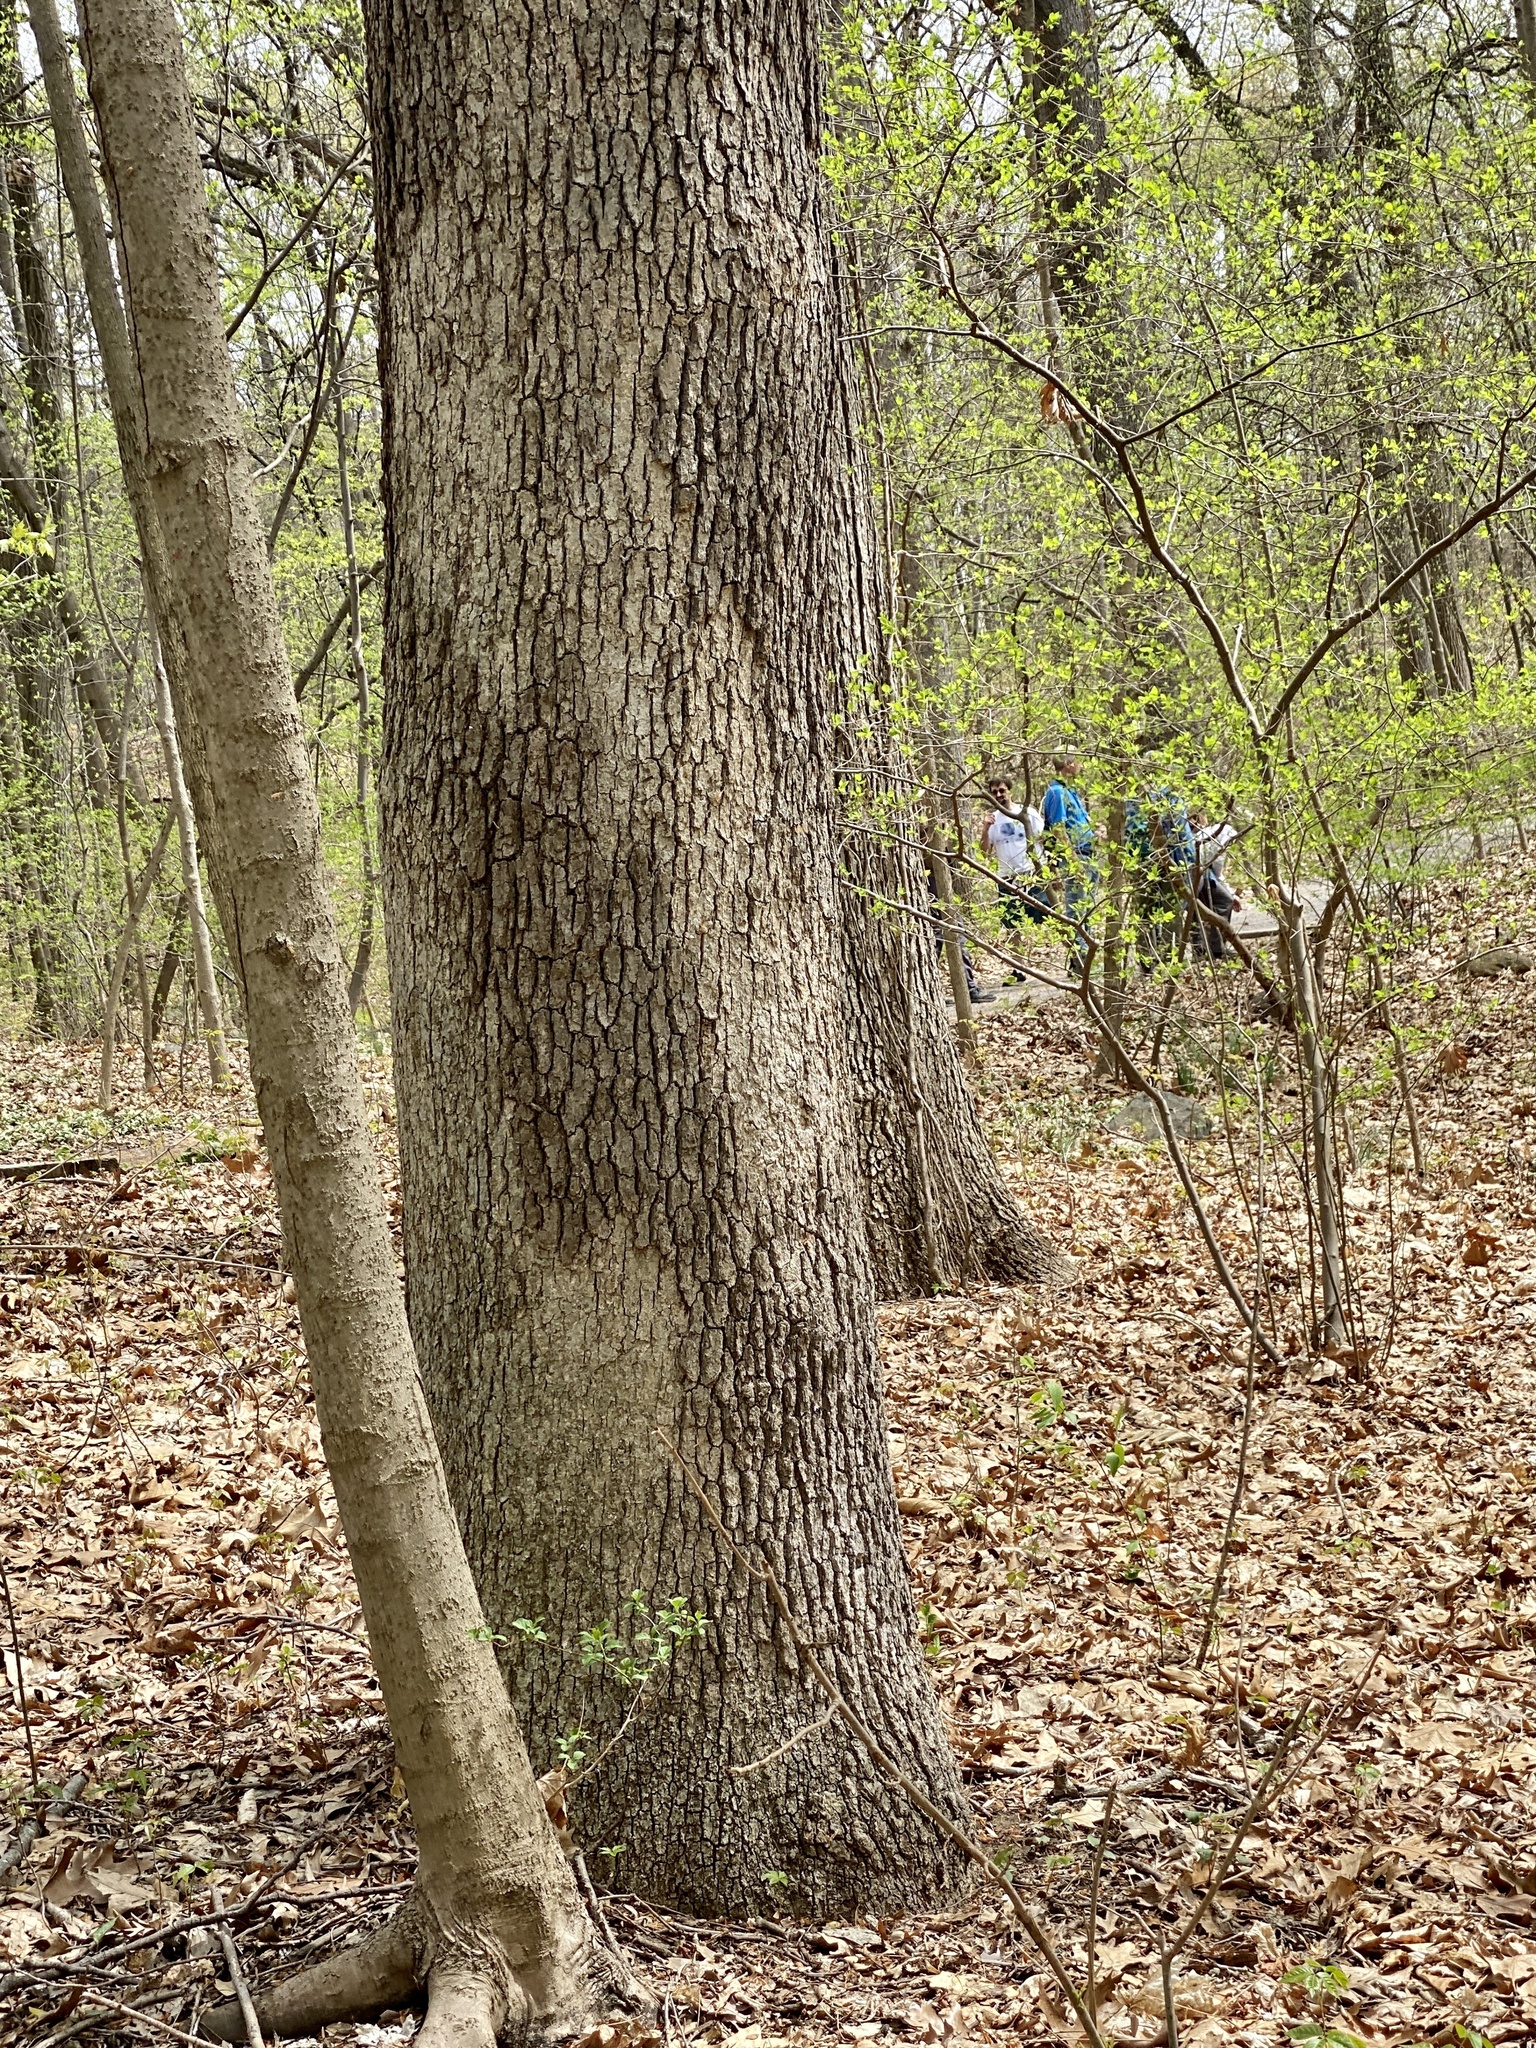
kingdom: Fungi
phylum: Basidiomycota
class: Agaricomycetes
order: Russulales
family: Stereaceae
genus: Acanthophysium
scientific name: Acanthophysium oakesii
